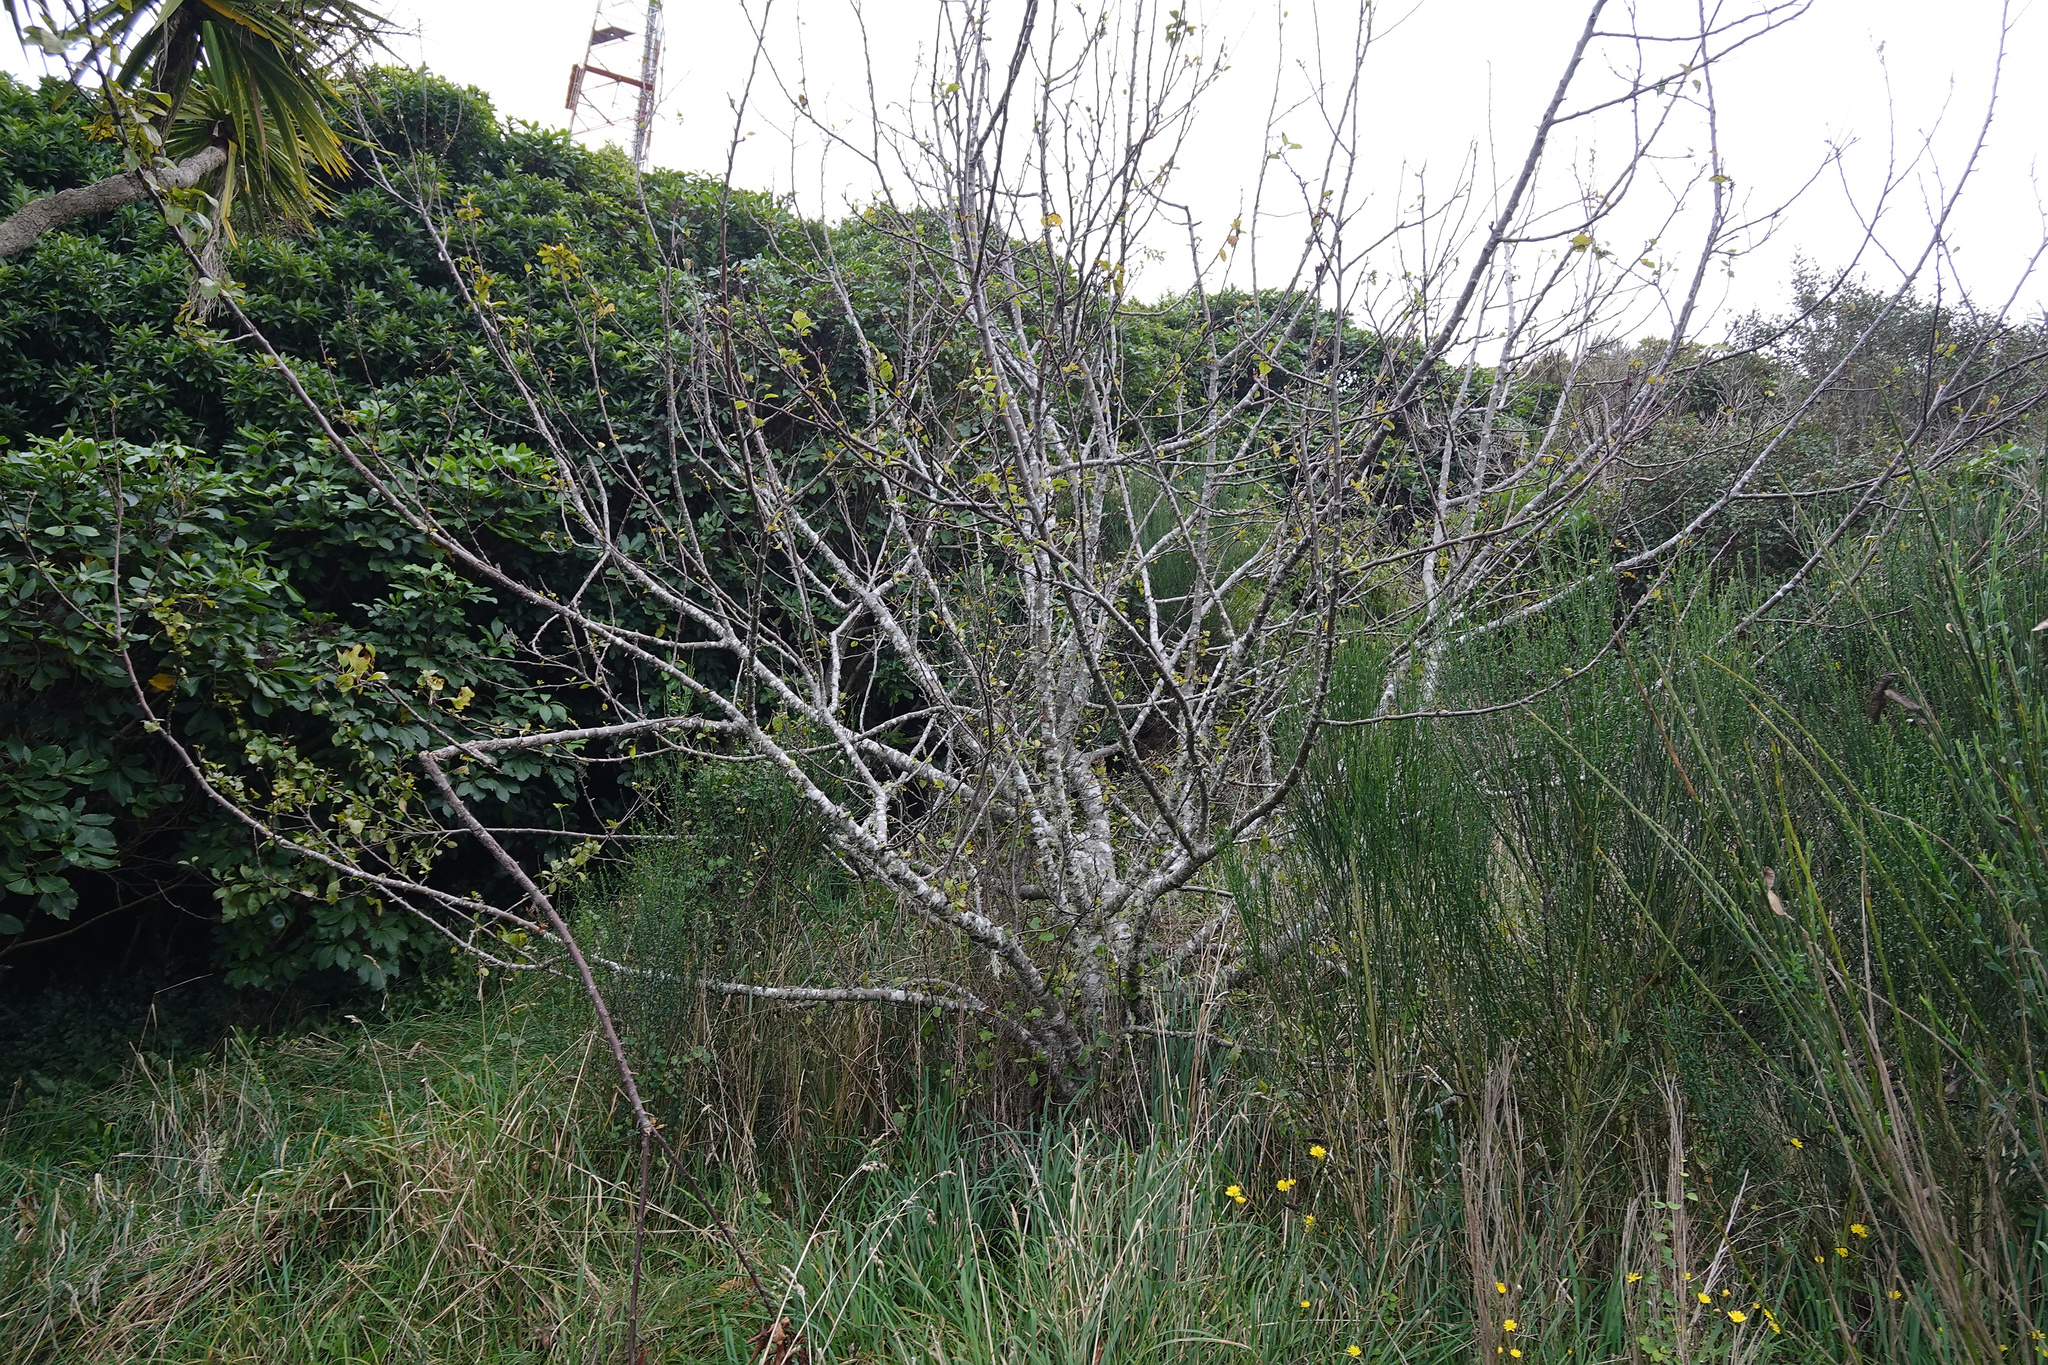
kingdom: Plantae
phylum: Tracheophyta
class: Magnoliopsida
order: Rosales
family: Rosaceae
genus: Malus
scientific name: Malus domestica
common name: Apple
